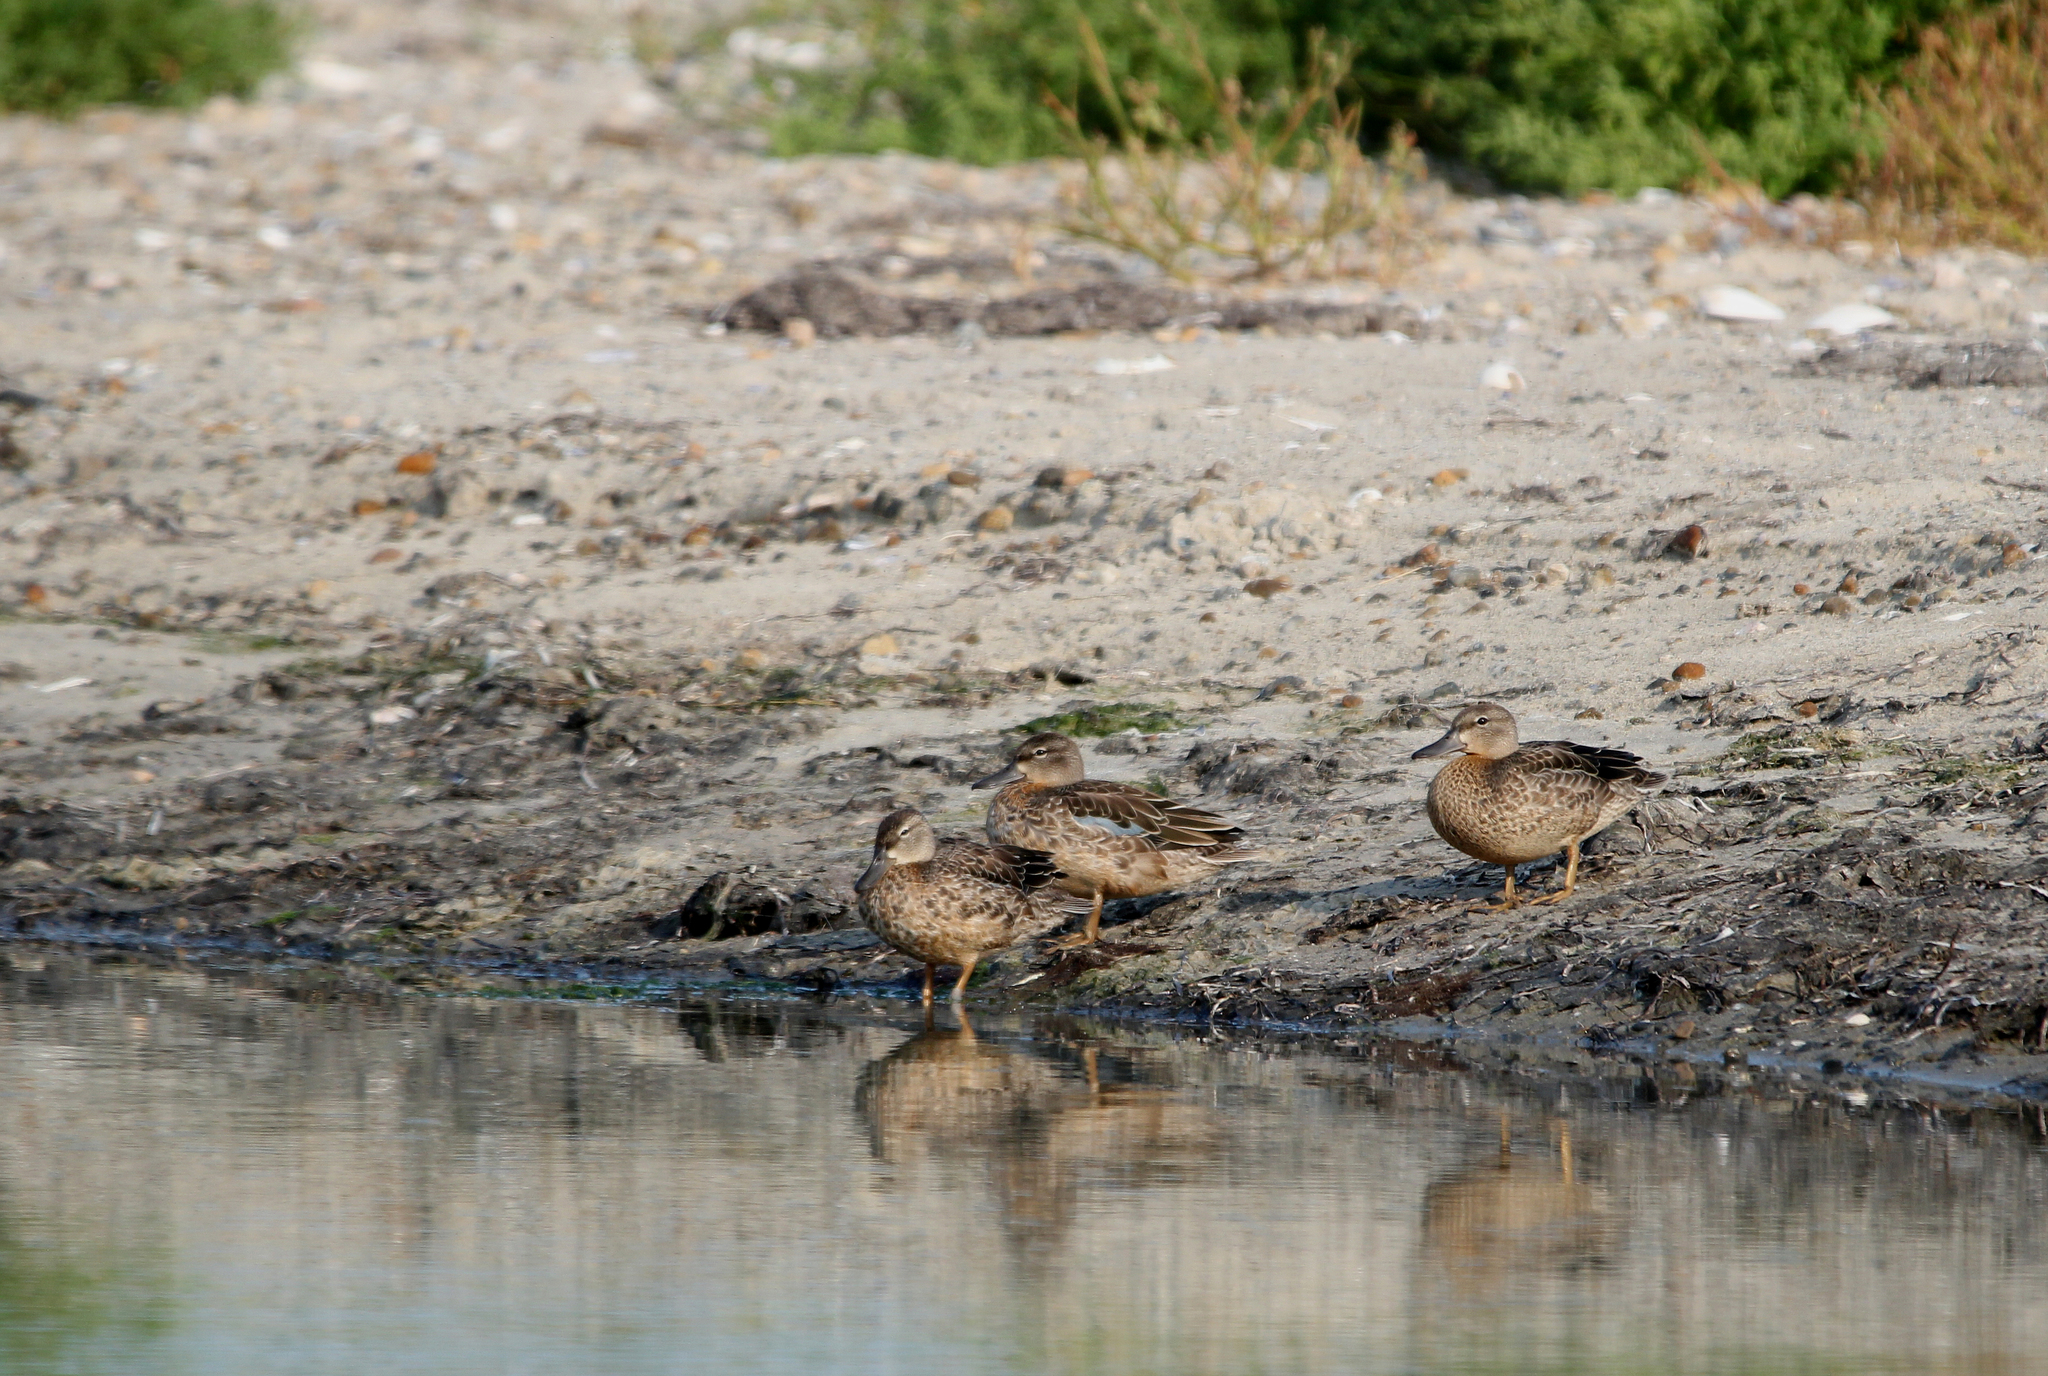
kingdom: Animalia
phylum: Chordata
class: Aves
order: Anseriformes
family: Anatidae
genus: Spatula
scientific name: Spatula discors
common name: Blue-winged teal
